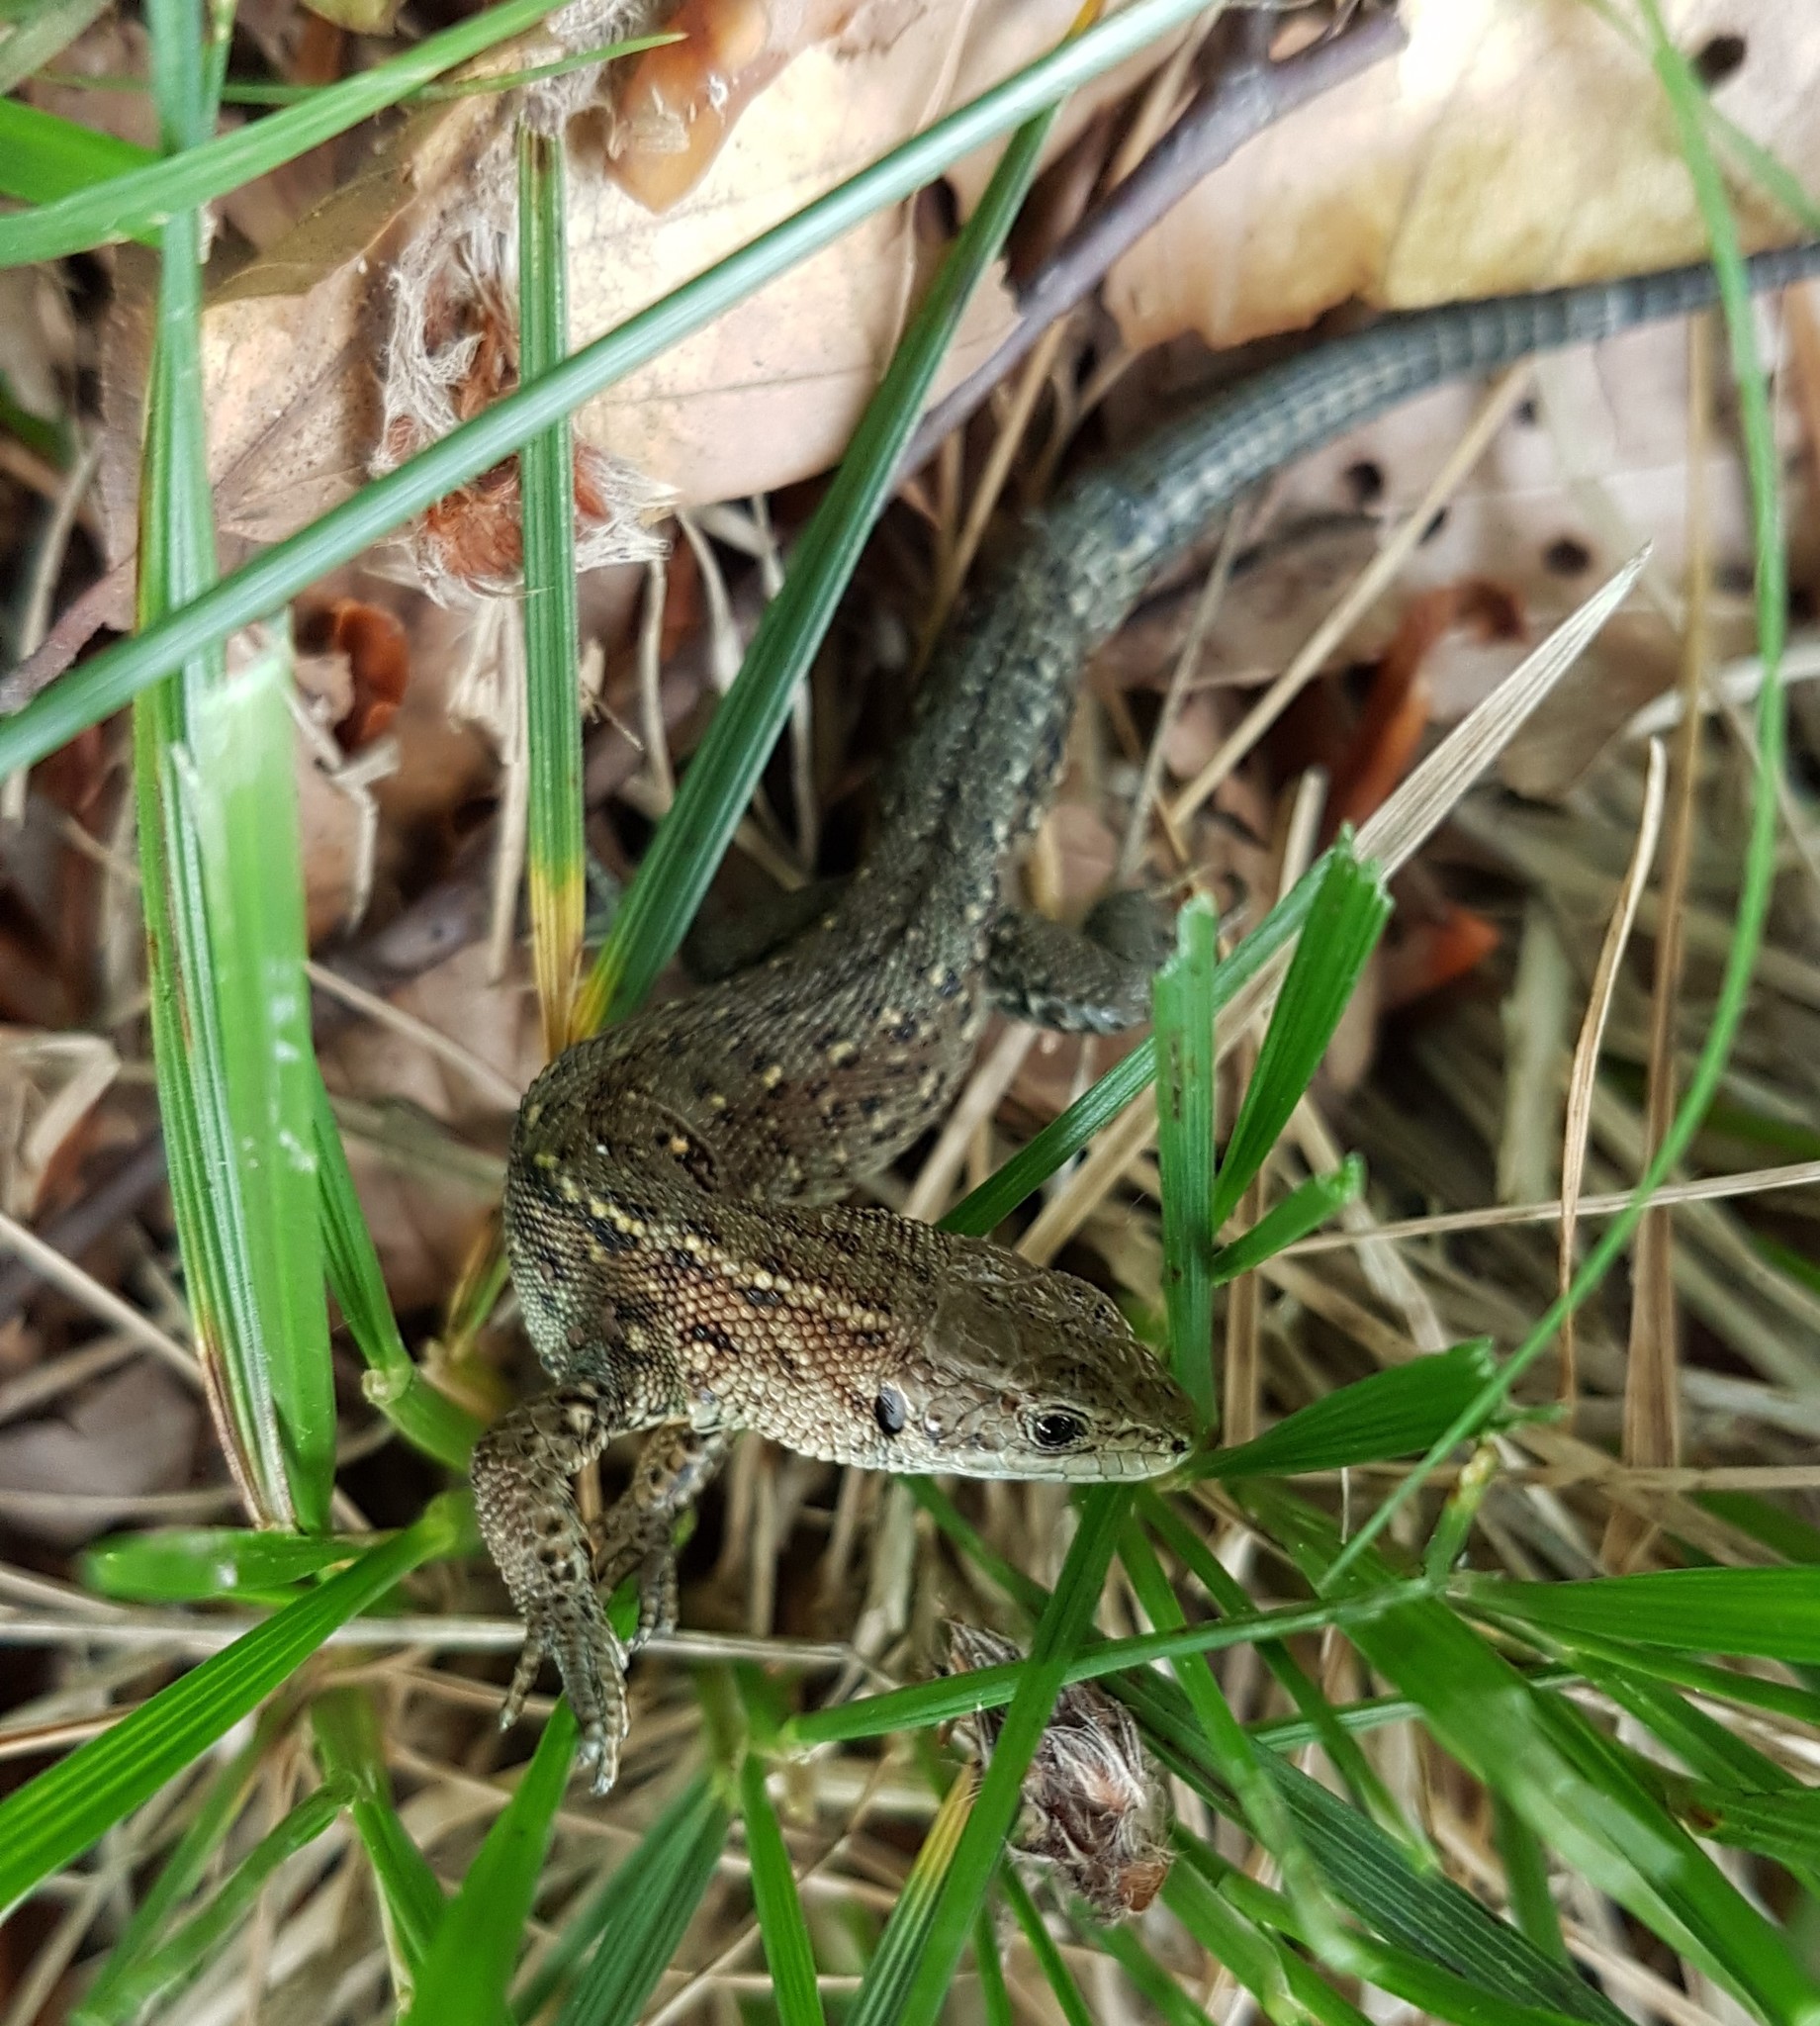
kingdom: Animalia
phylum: Chordata
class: Squamata
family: Lacertidae
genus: Zootoca
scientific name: Zootoca vivipara
